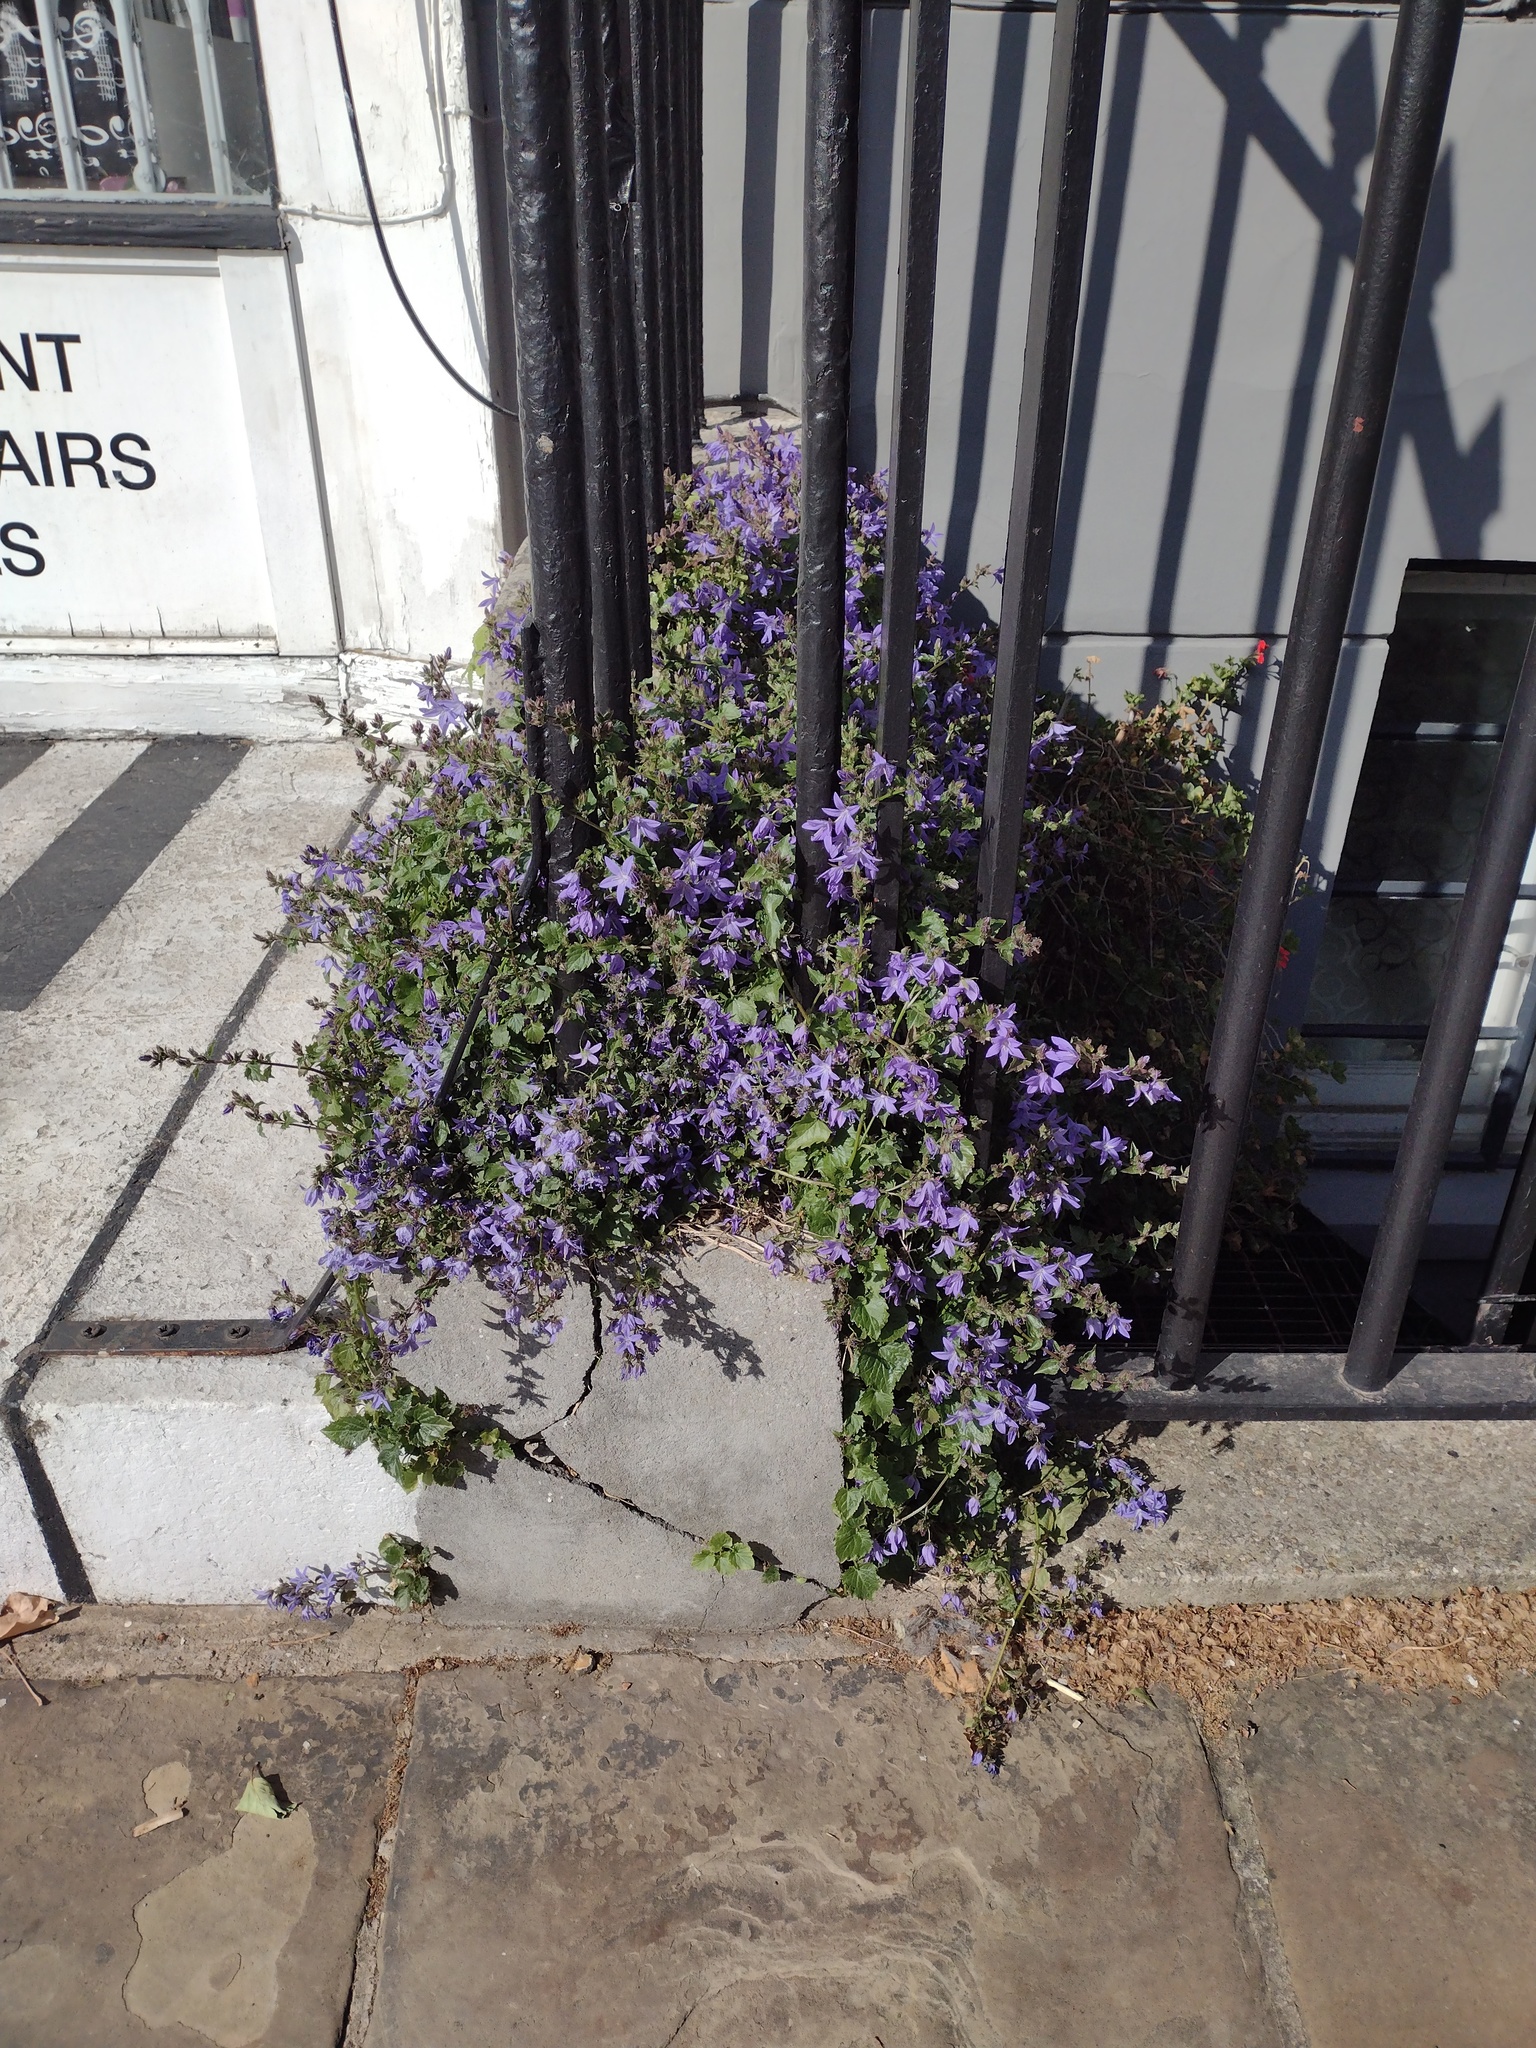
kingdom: Plantae
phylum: Tracheophyta
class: Magnoliopsida
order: Asterales
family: Campanulaceae
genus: Campanula
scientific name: Campanula poscharskyana
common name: Trailing bellflower
